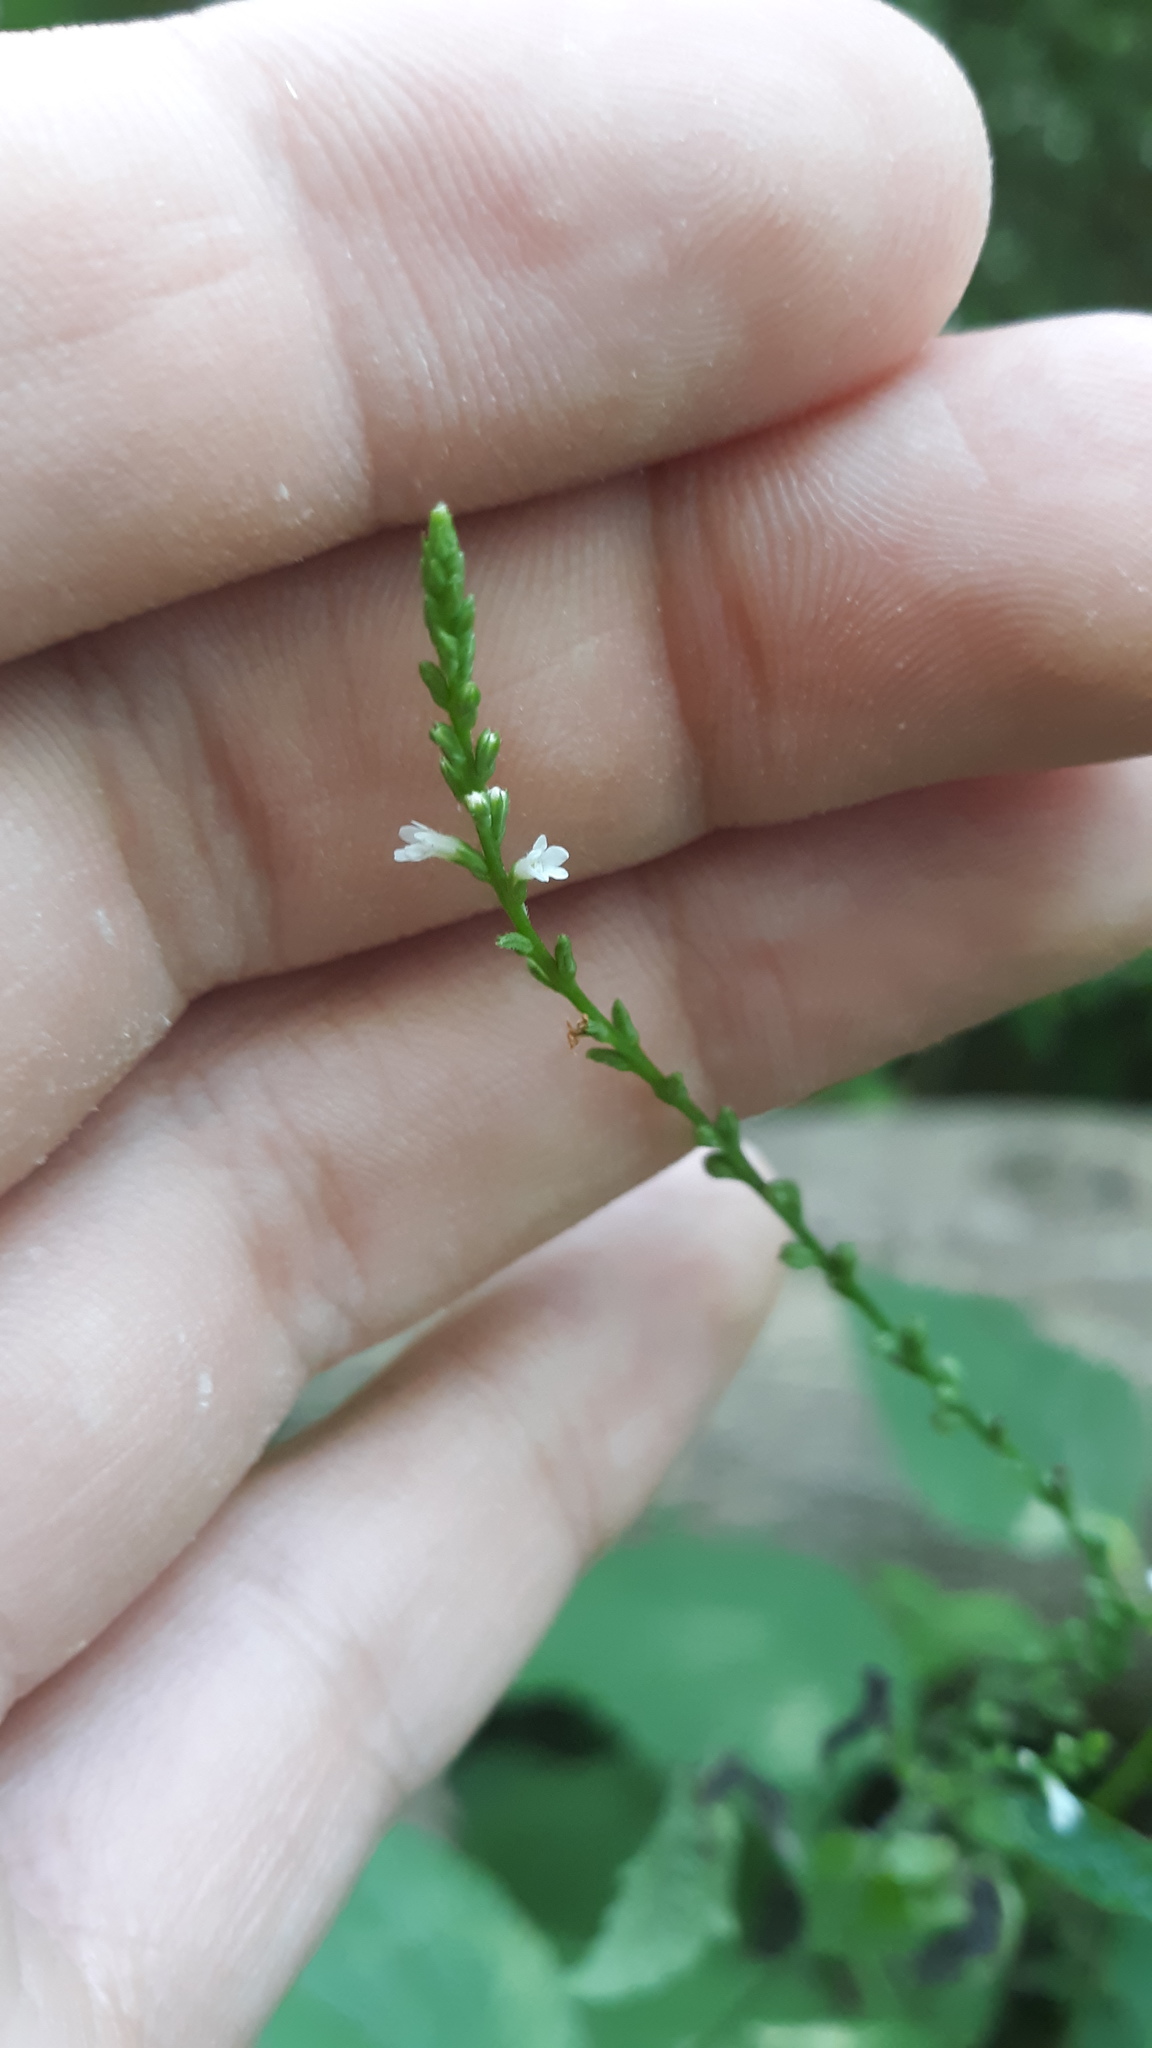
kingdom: Plantae
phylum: Tracheophyta
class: Magnoliopsida
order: Lamiales
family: Verbenaceae
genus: Verbena
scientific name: Verbena urticifolia
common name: Nettle-leaved vervain
